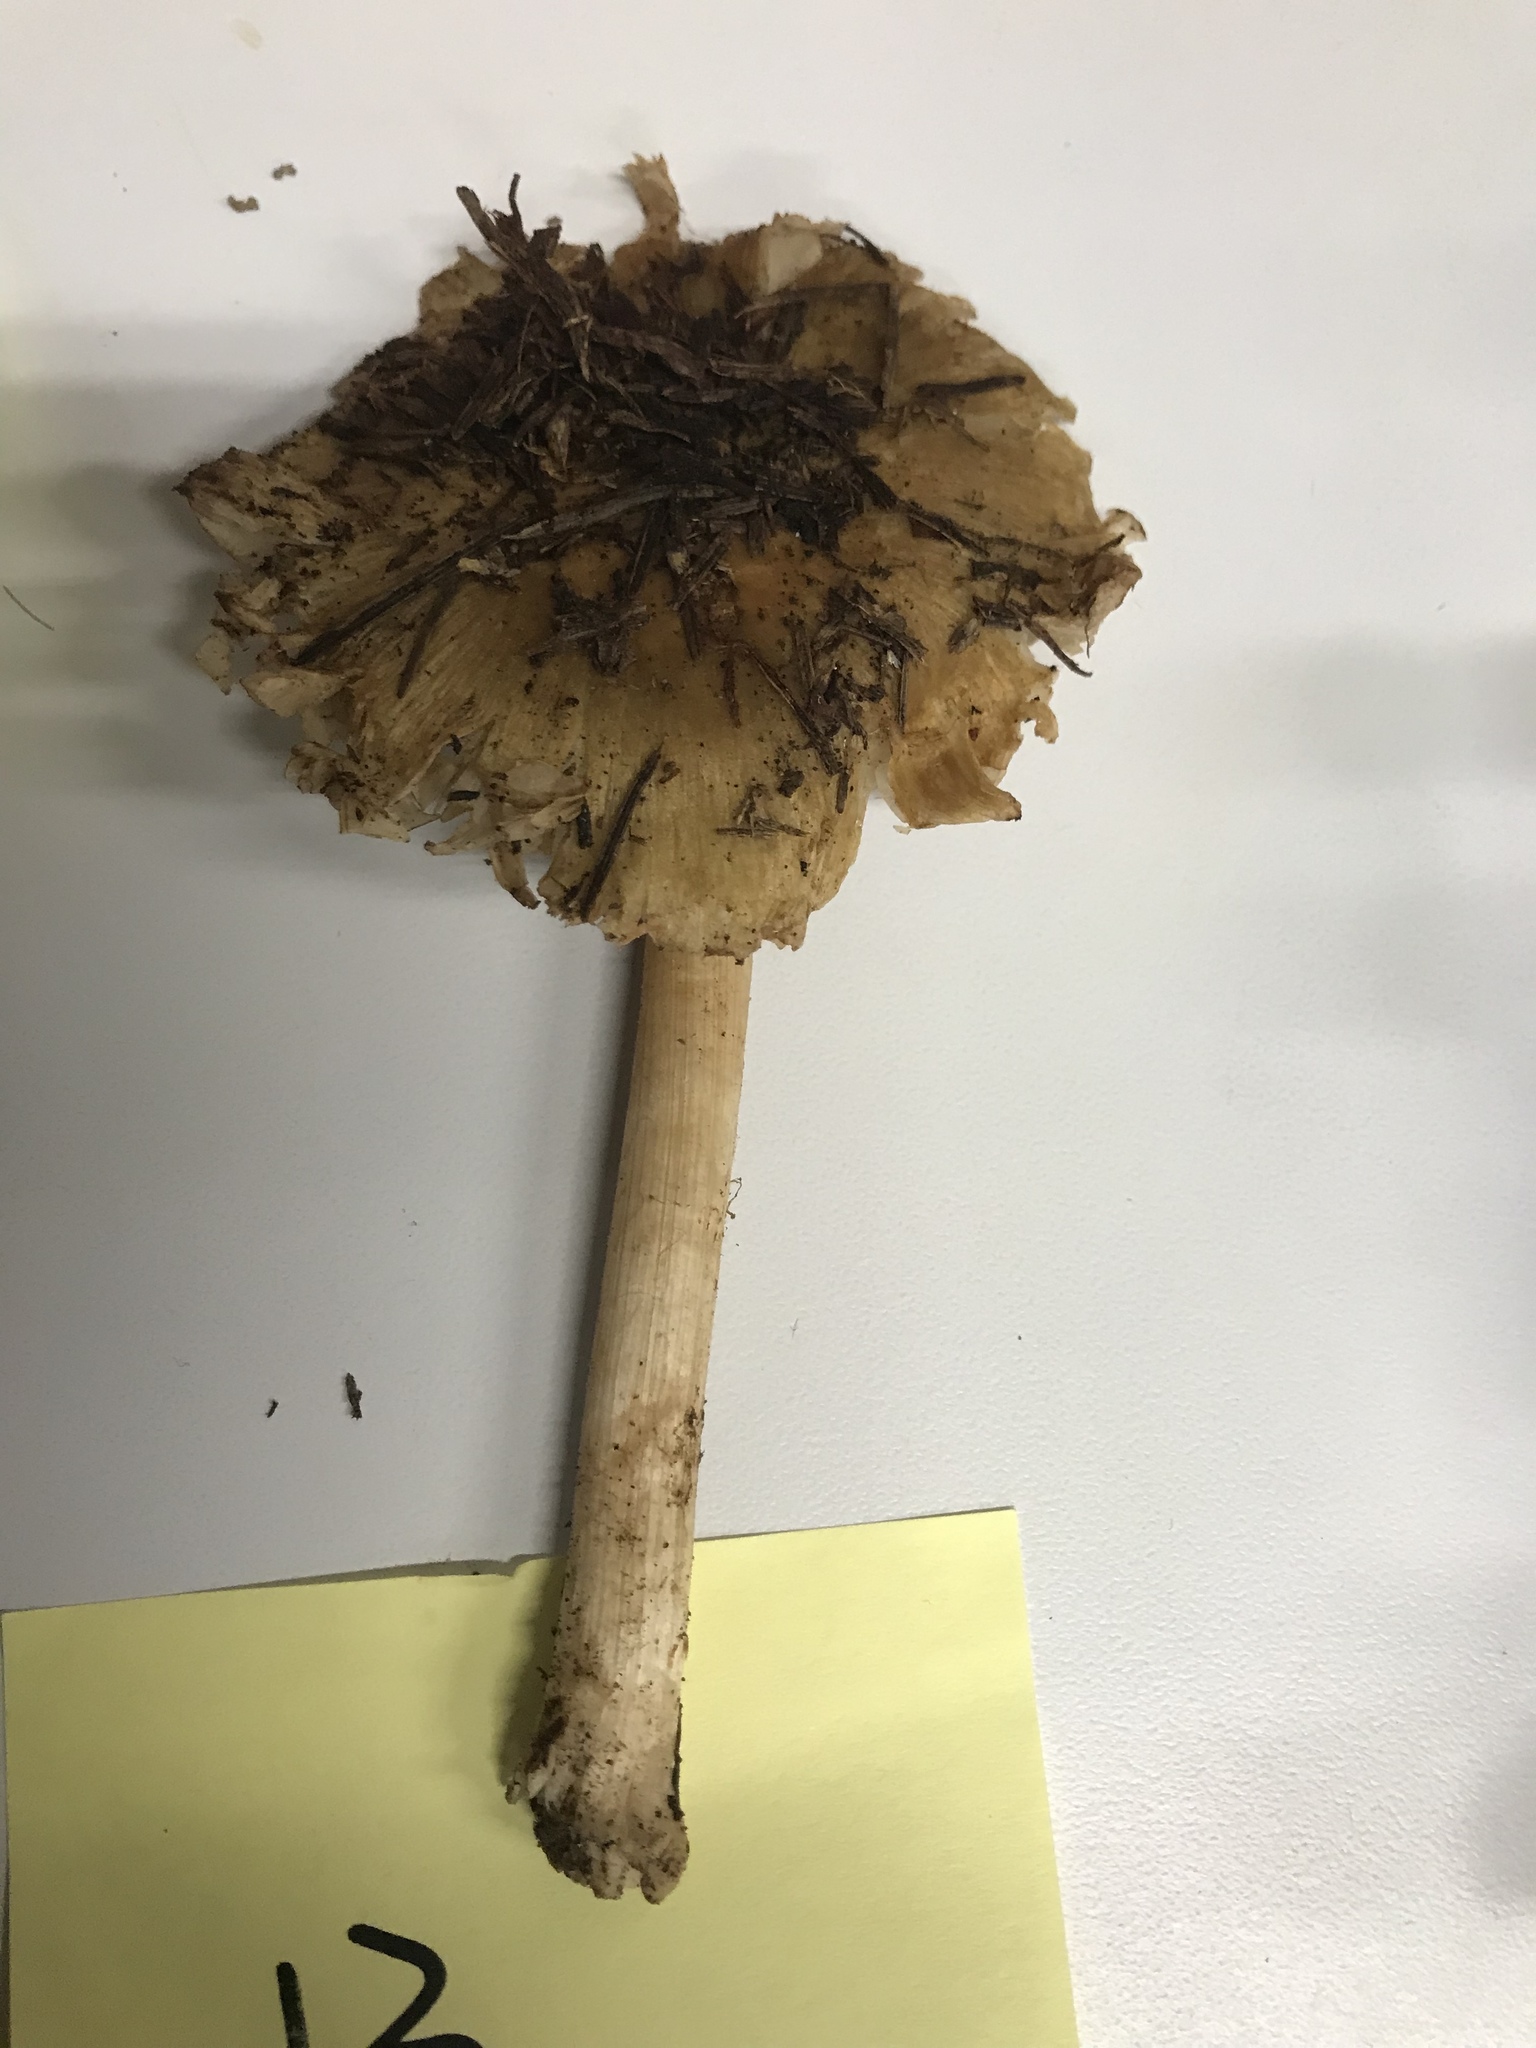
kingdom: Fungi
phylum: Basidiomycota
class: Agaricomycetes
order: Agaricales
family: Inocybaceae
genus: Inocybe
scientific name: Inocybe mixtilis
